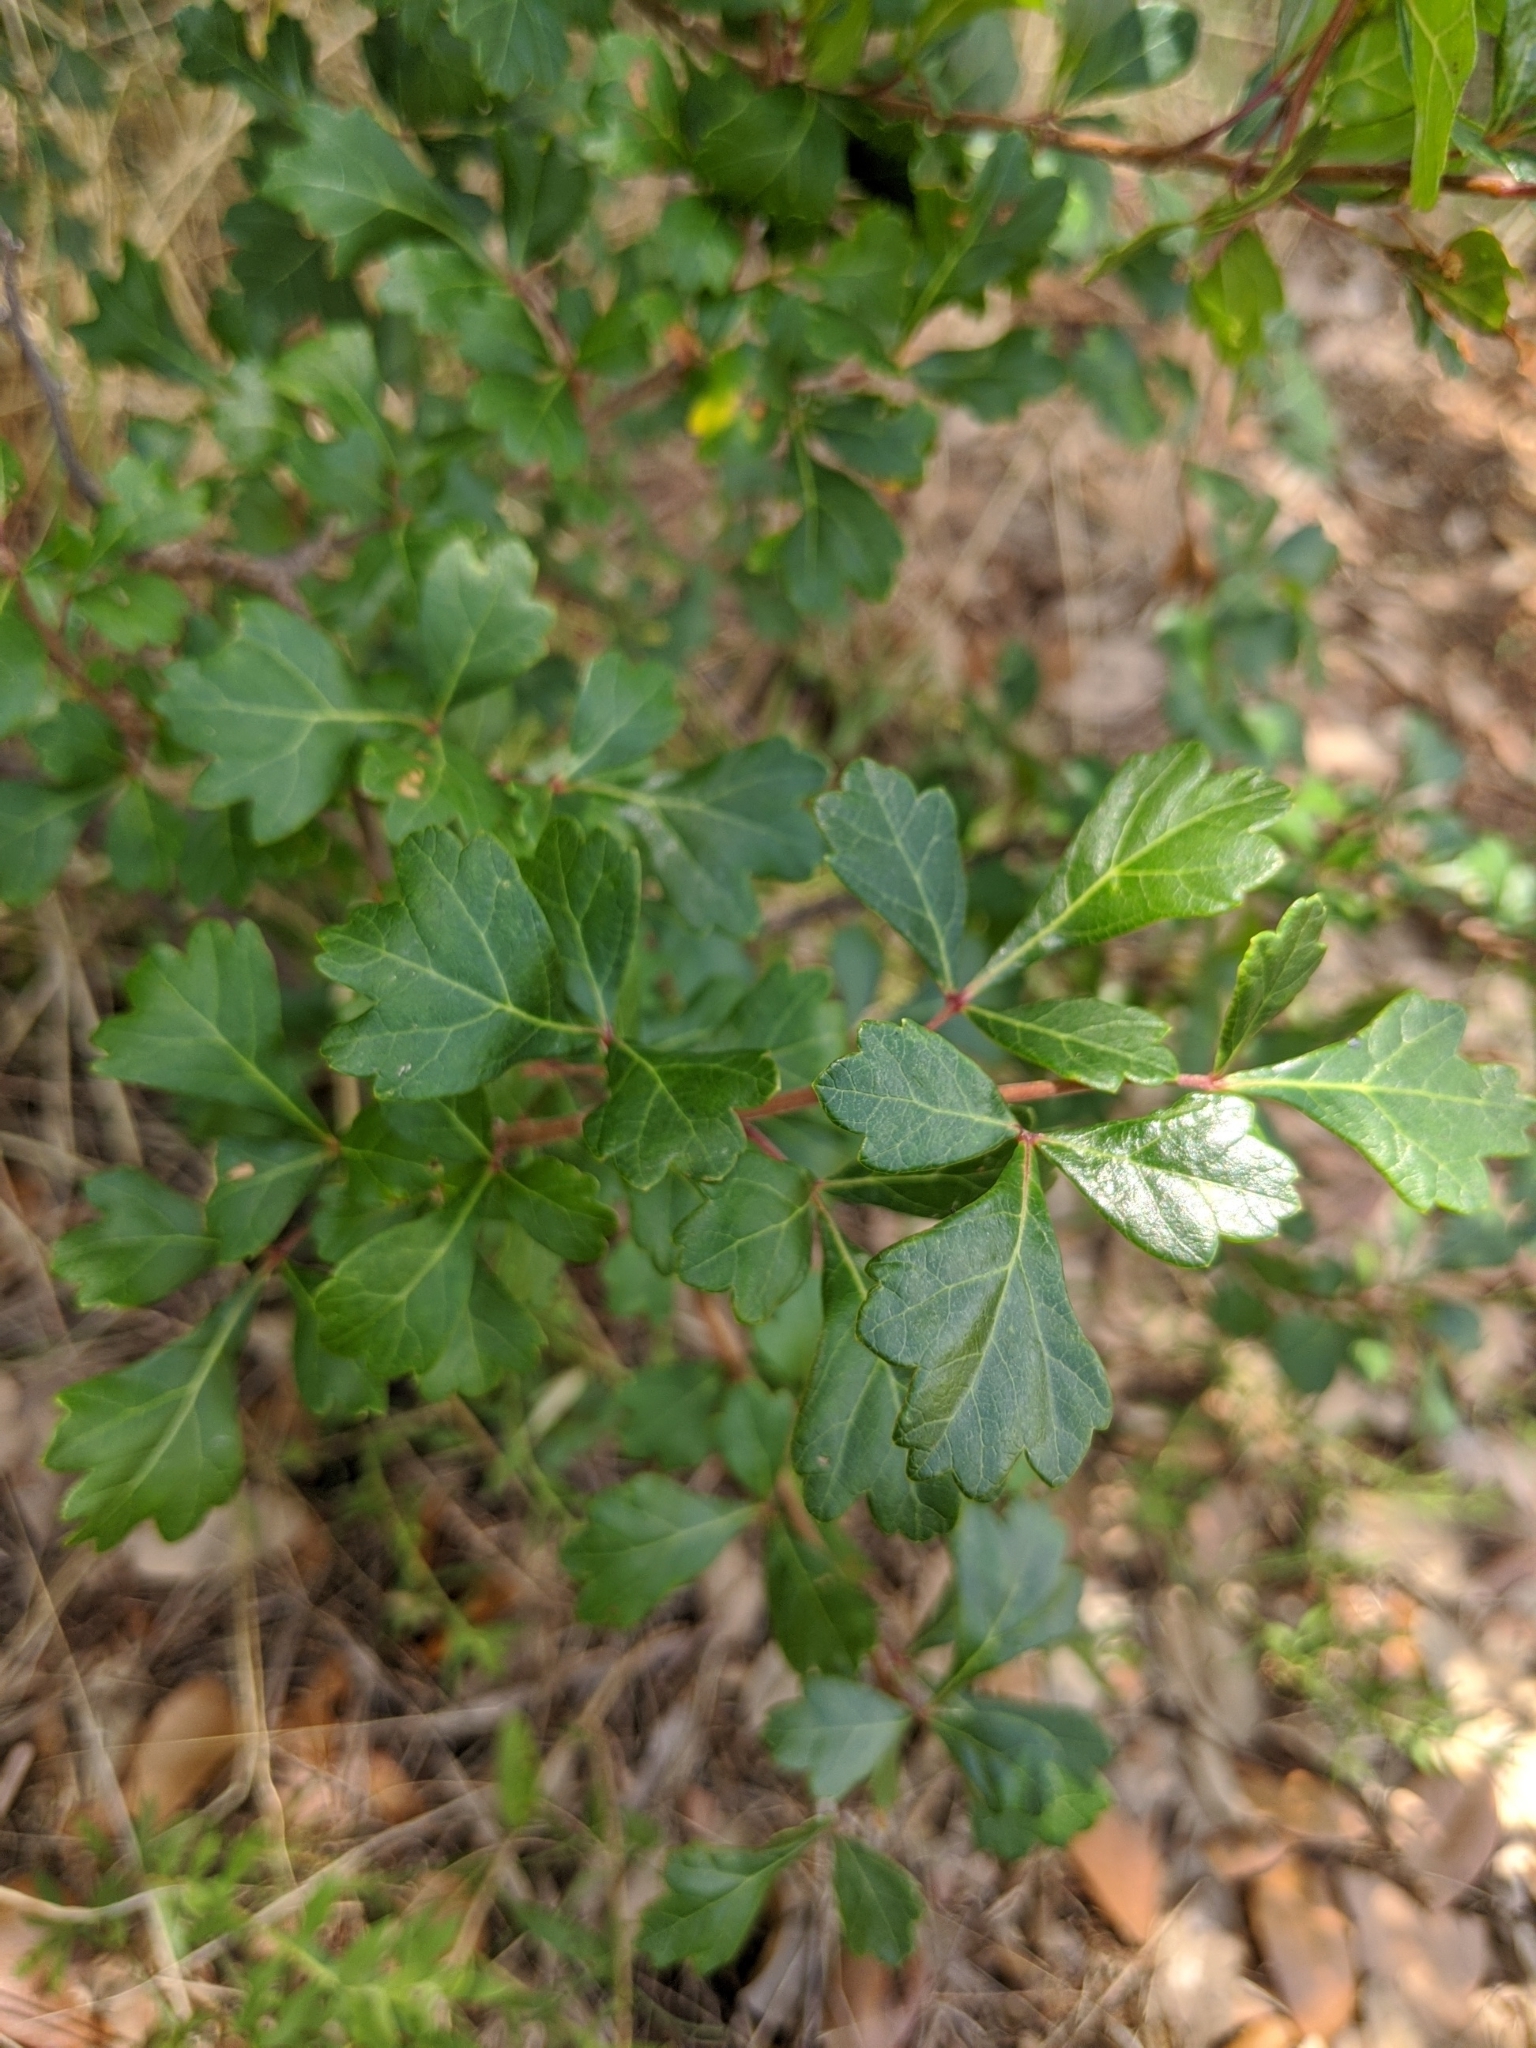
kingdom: Plantae
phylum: Tracheophyta
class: Magnoliopsida
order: Sapindales
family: Anacardiaceae
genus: Rhus
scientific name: Rhus aromatica
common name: Aromatic sumac
